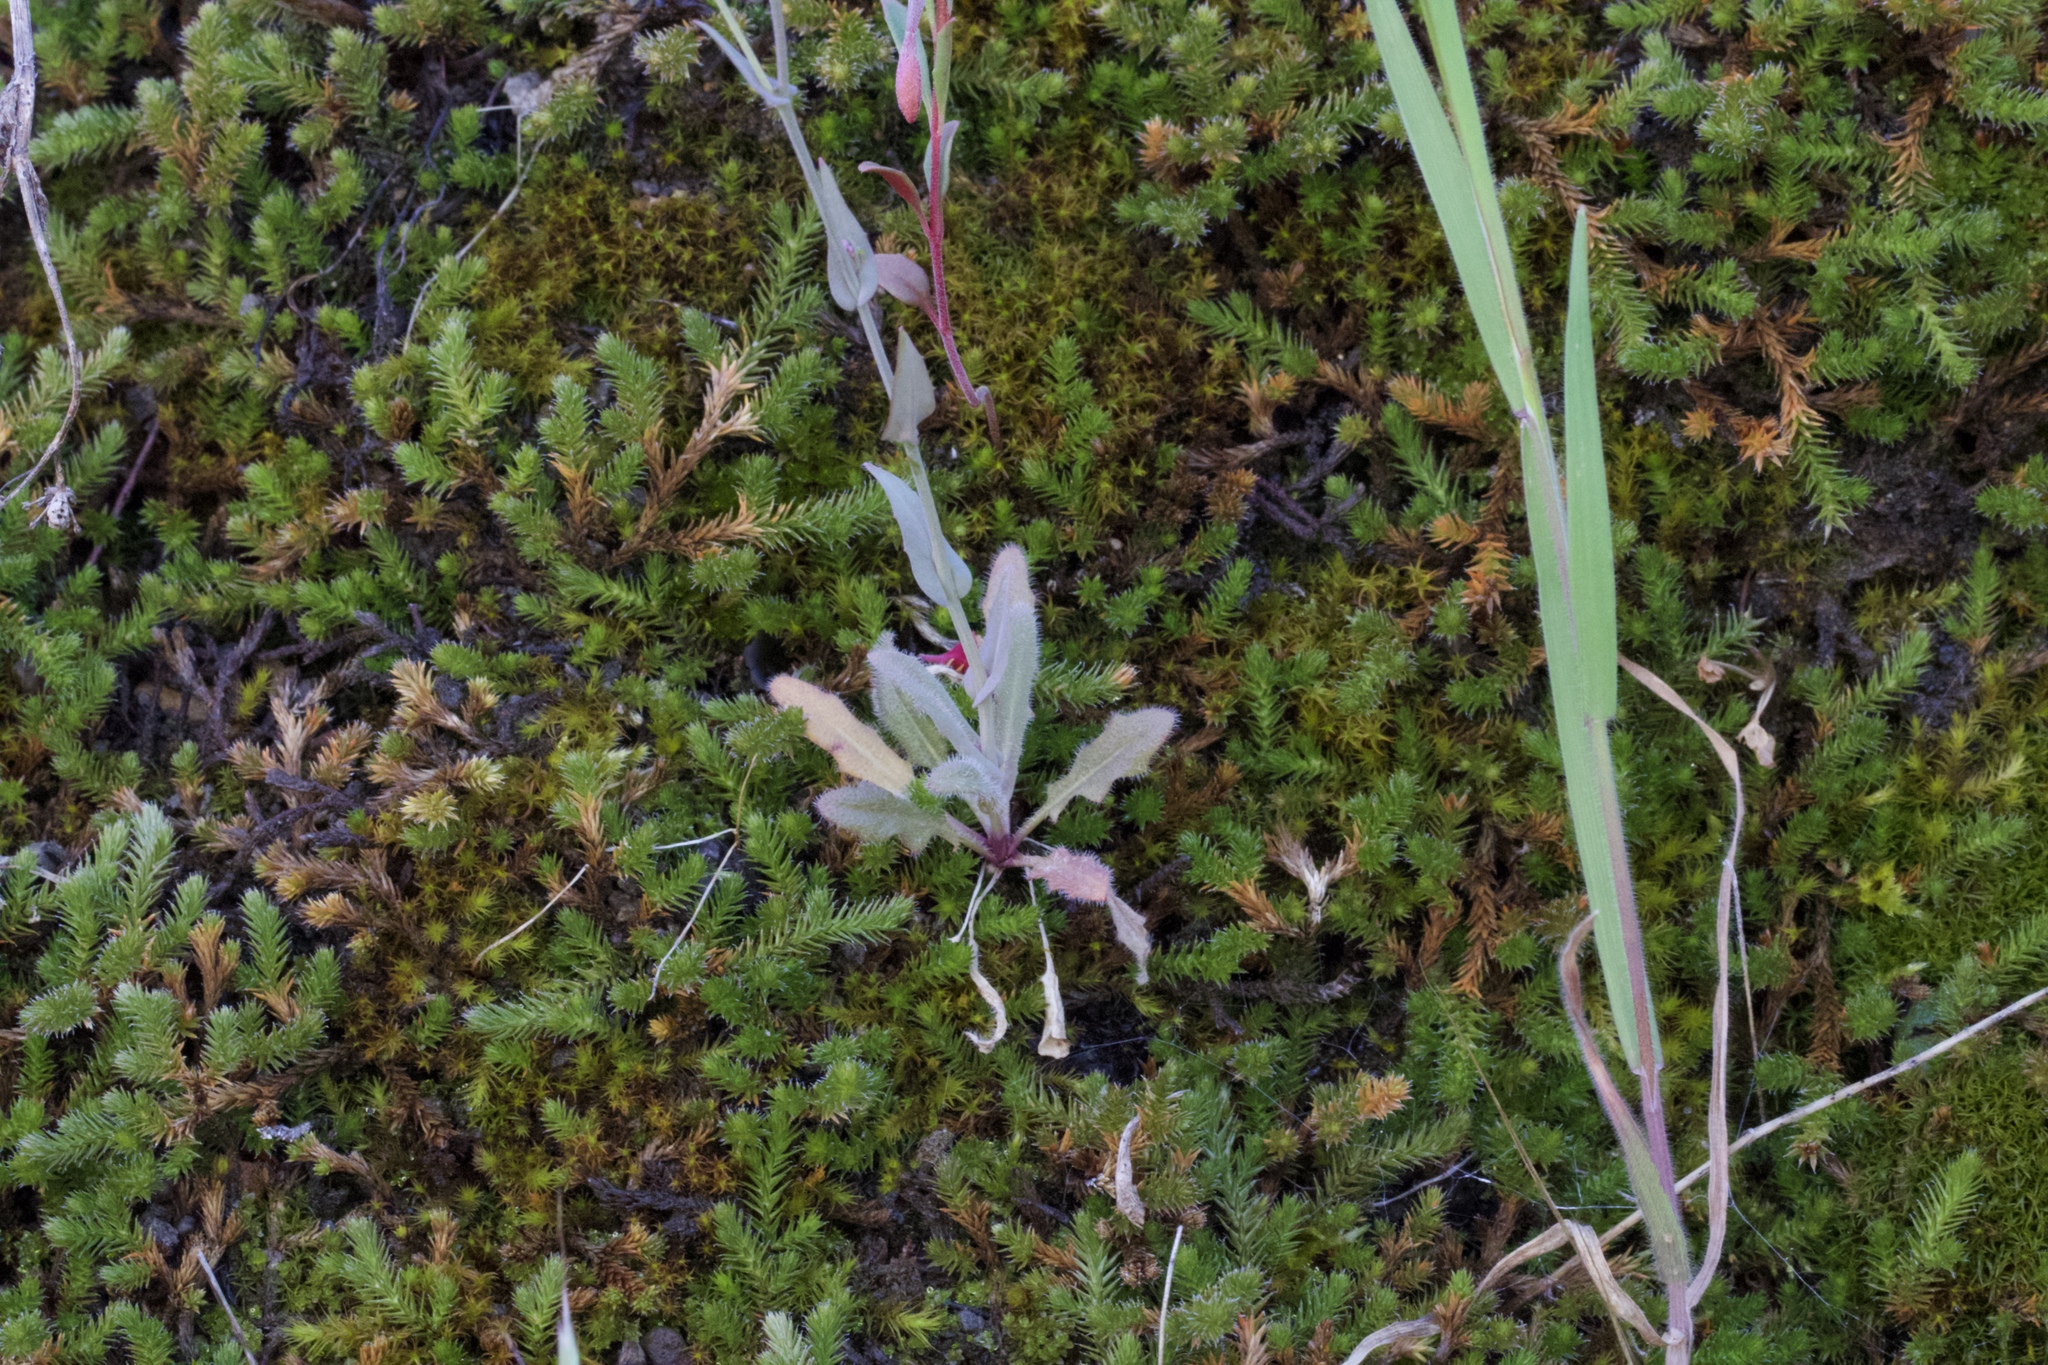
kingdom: Plantae
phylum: Tracheophyta
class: Magnoliopsida
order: Brassicales
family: Brassicaceae
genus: Thysanocarpus
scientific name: Thysanocarpus curvipes
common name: Sand fringepod
